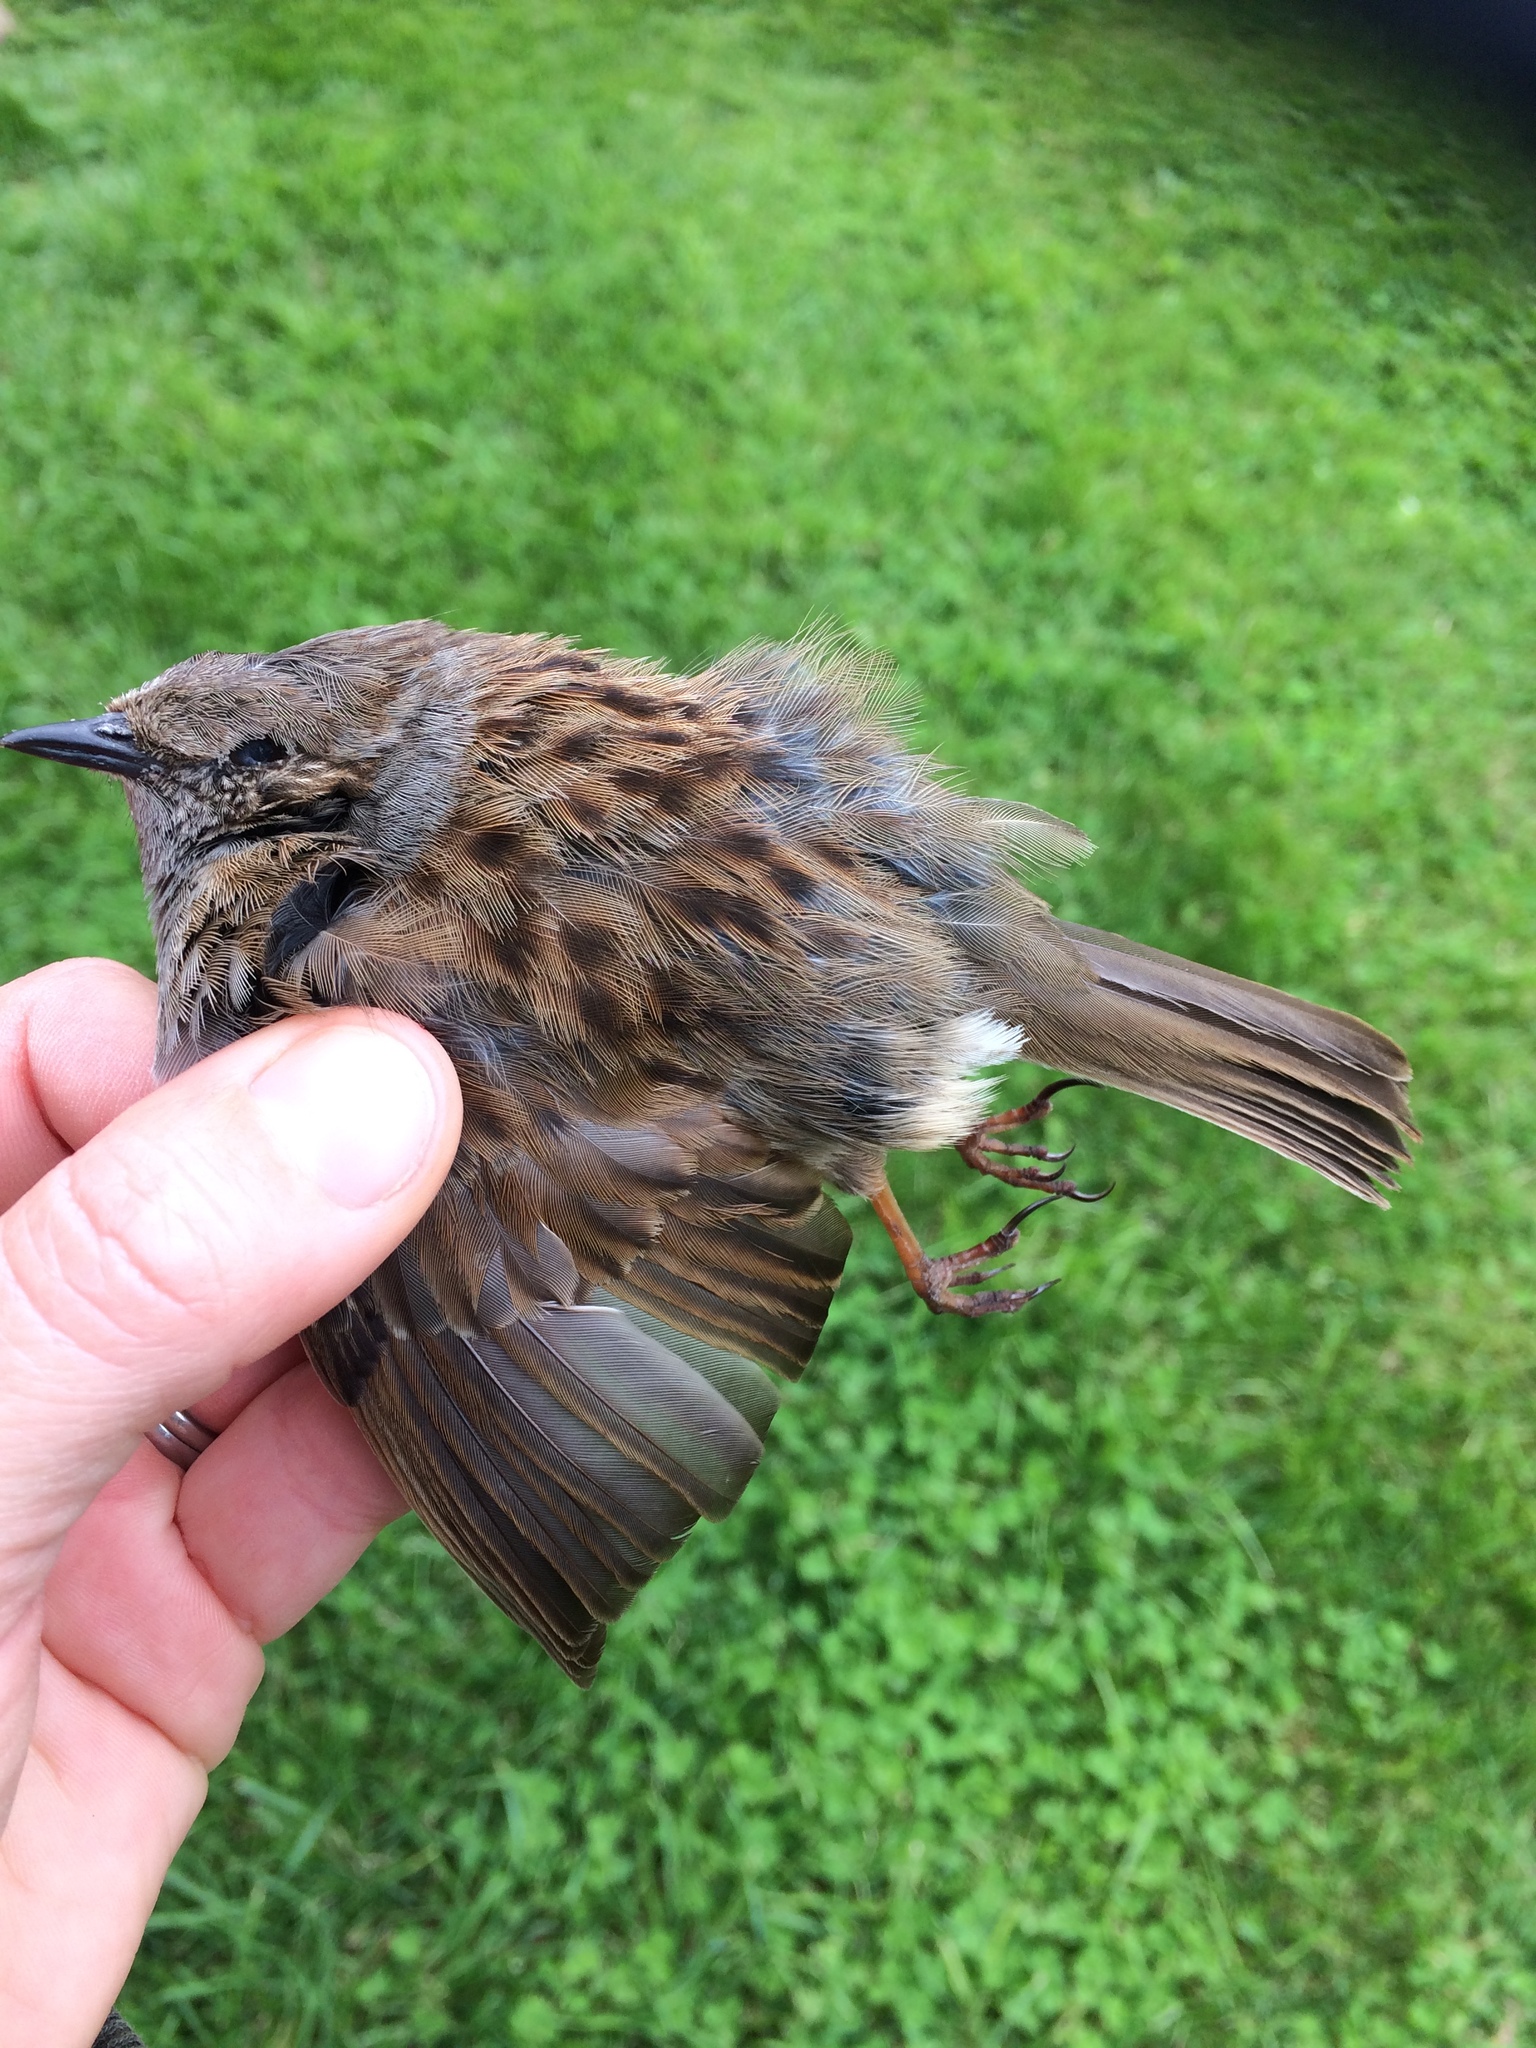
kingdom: Animalia
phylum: Chordata
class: Aves
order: Passeriformes
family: Prunellidae
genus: Prunella
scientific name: Prunella modularis
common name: Dunnock
